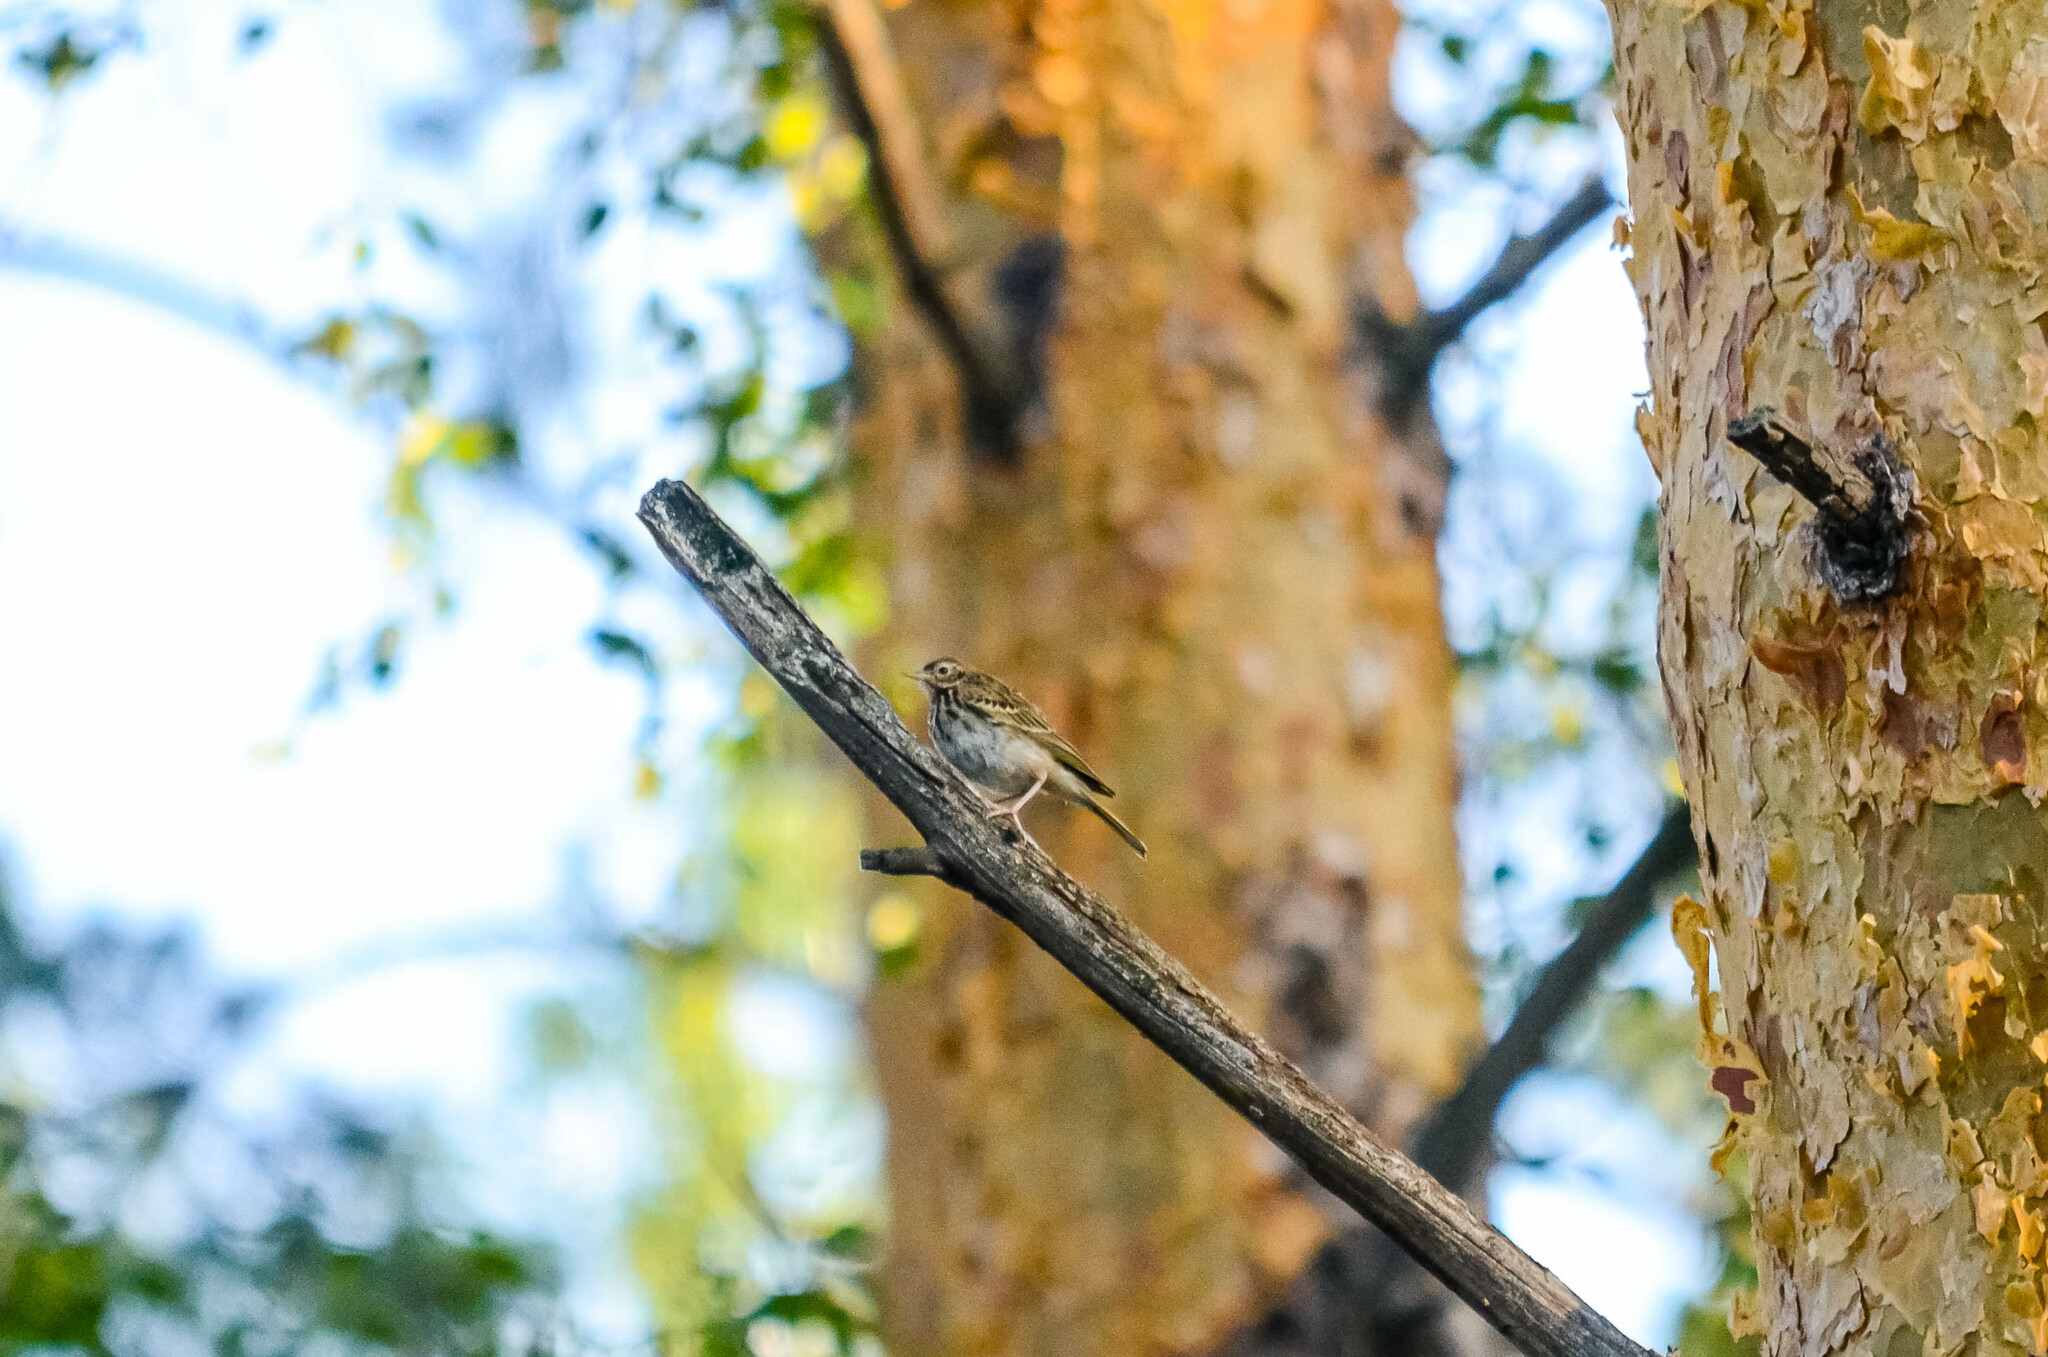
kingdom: Animalia
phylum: Chordata
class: Aves
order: Passeriformes
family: Motacillidae
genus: Anthus
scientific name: Anthus trivialis
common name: Tree pipit
